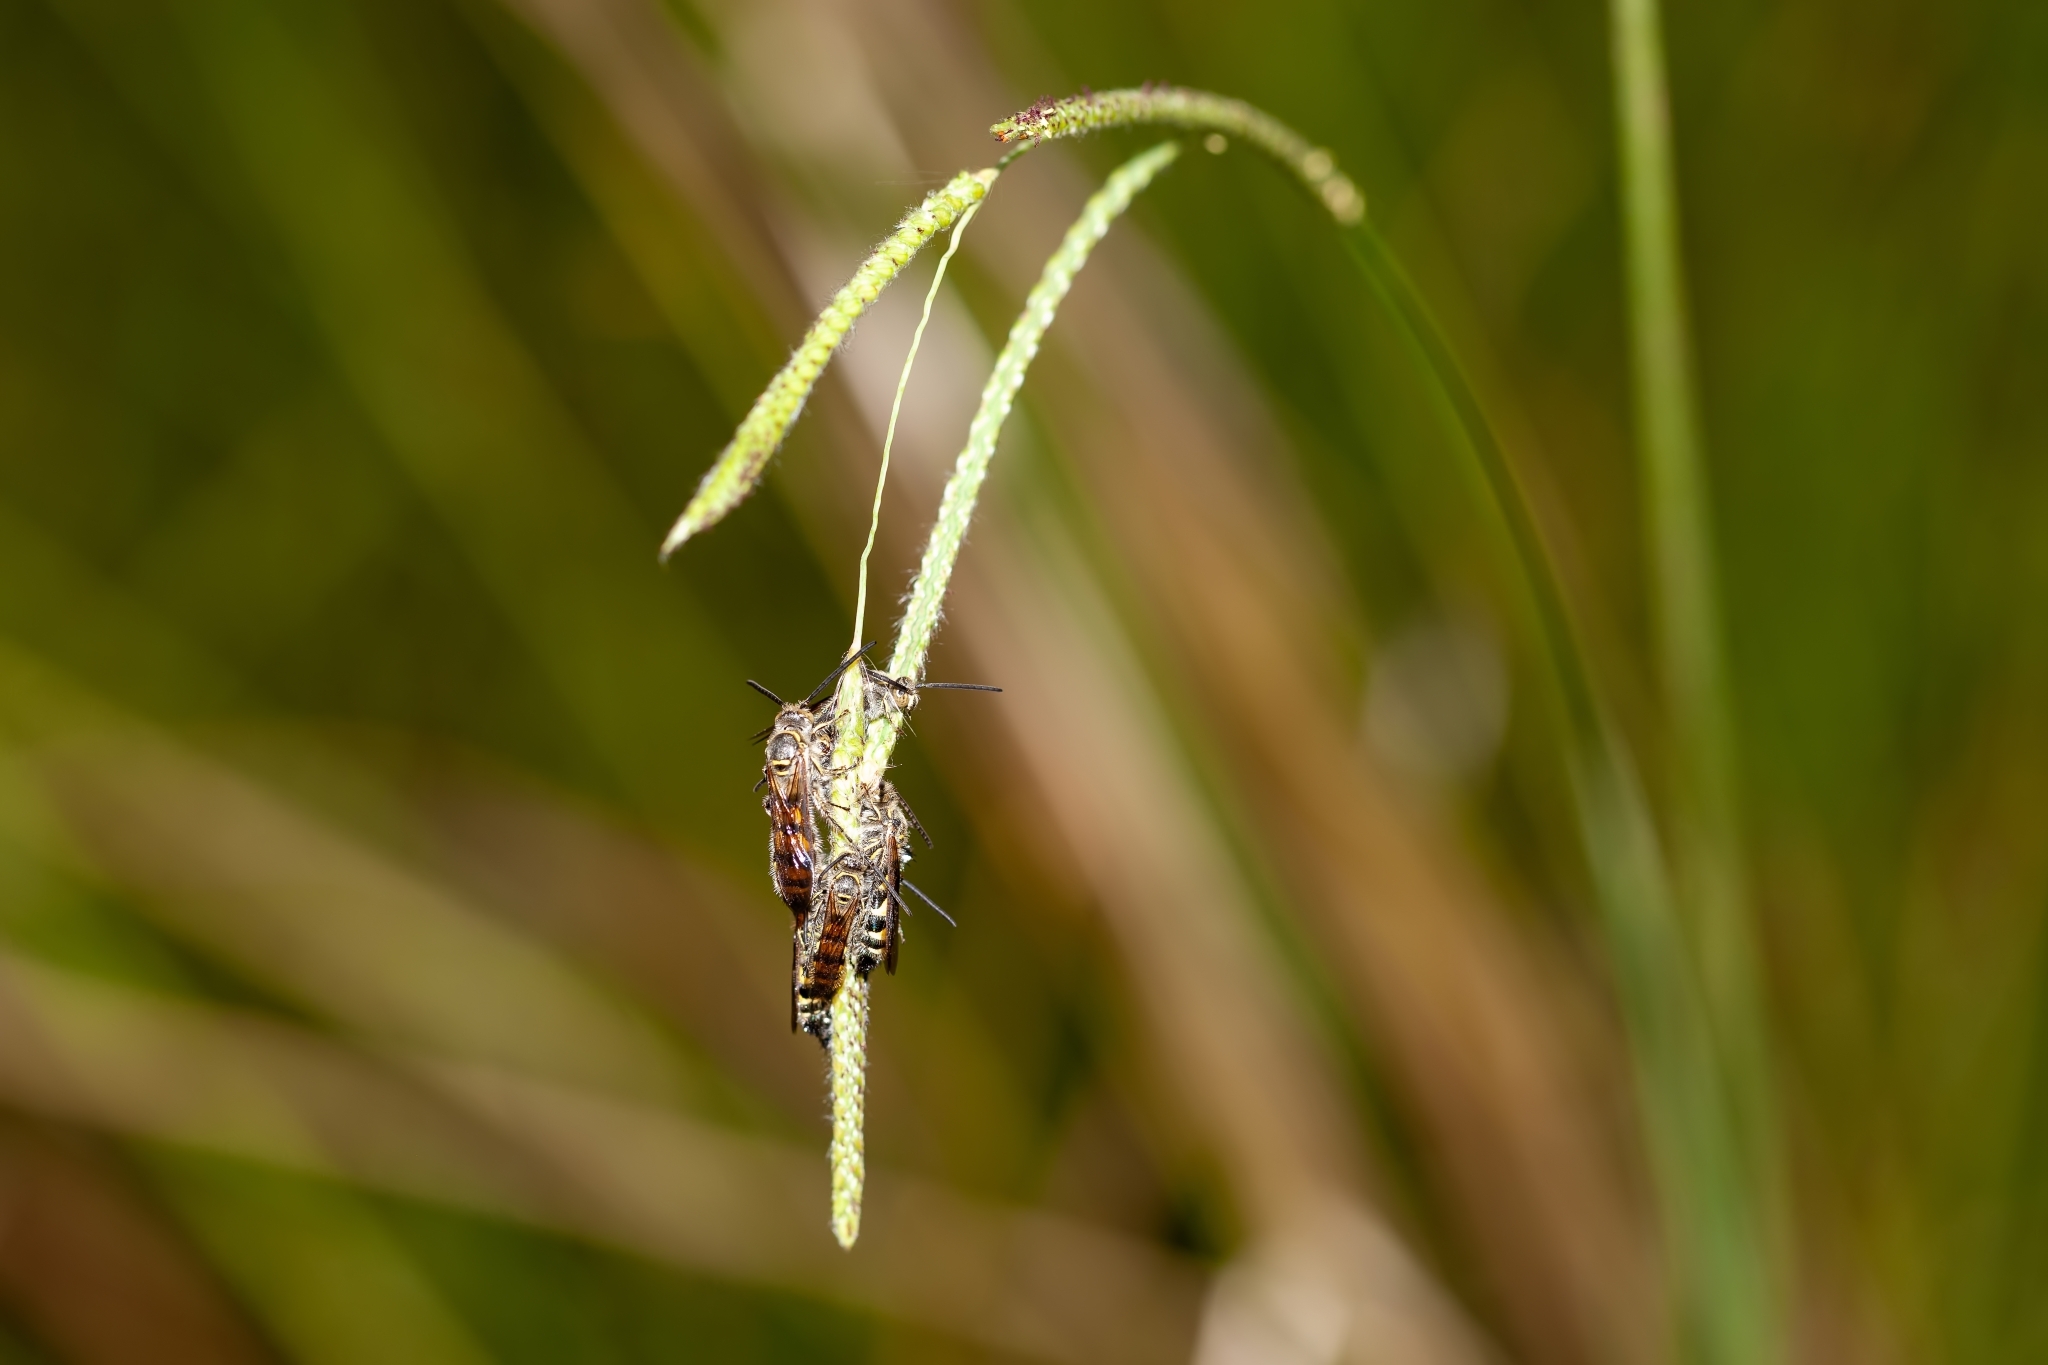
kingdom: Animalia
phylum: Arthropoda
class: Insecta
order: Hymenoptera
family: Scoliidae
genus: Dielis
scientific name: Dielis
